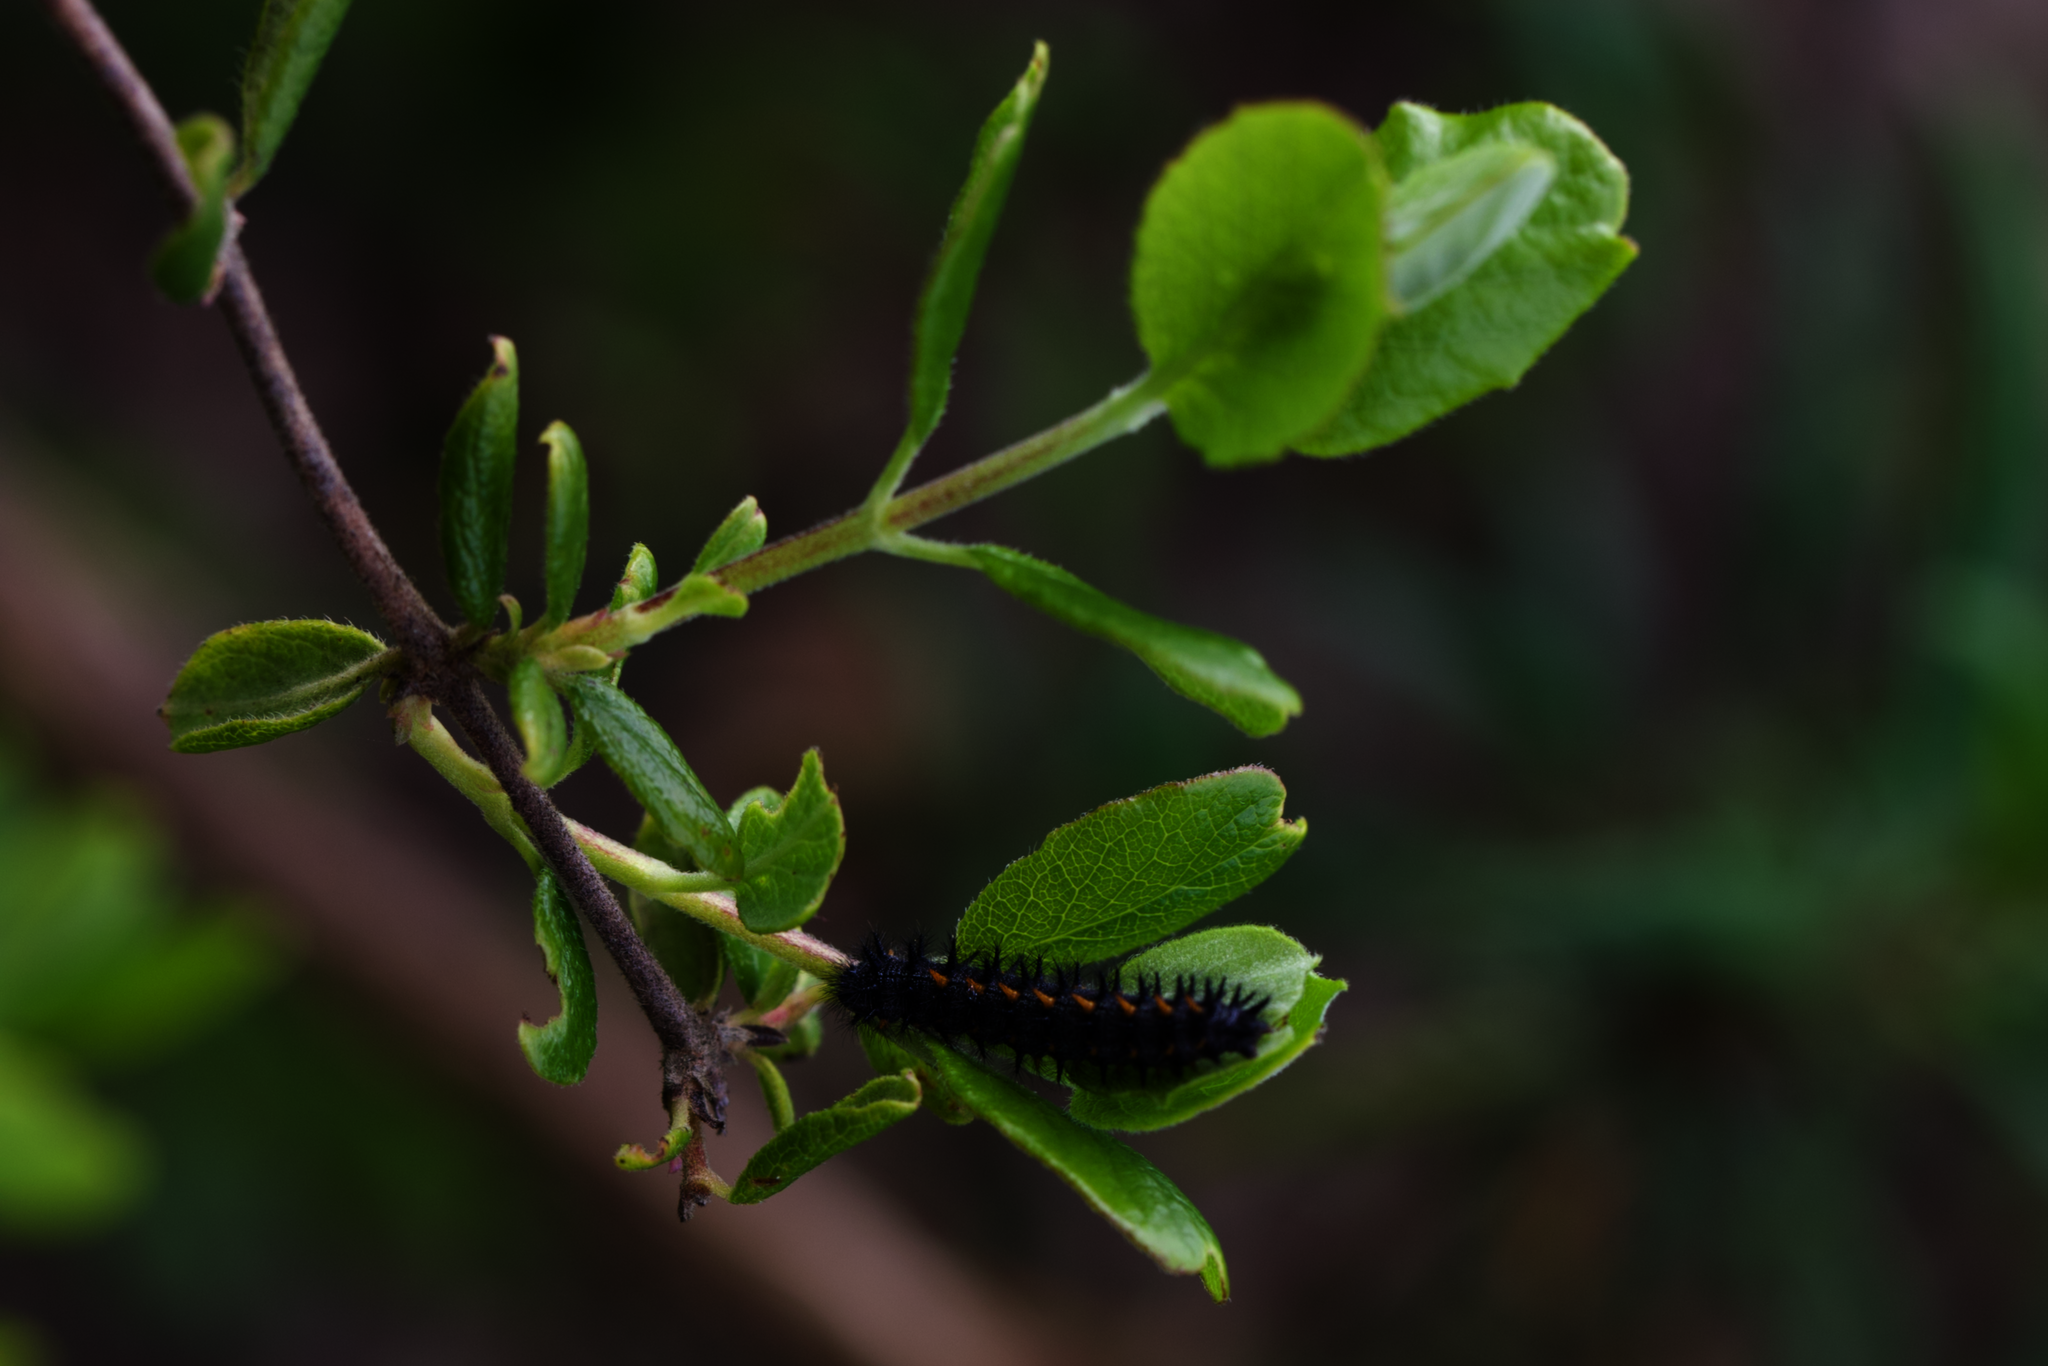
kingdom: Animalia
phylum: Arthropoda
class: Insecta
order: Lepidoptera
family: Nymphalidae
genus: Occidryas
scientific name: Occidryas chalcedona
